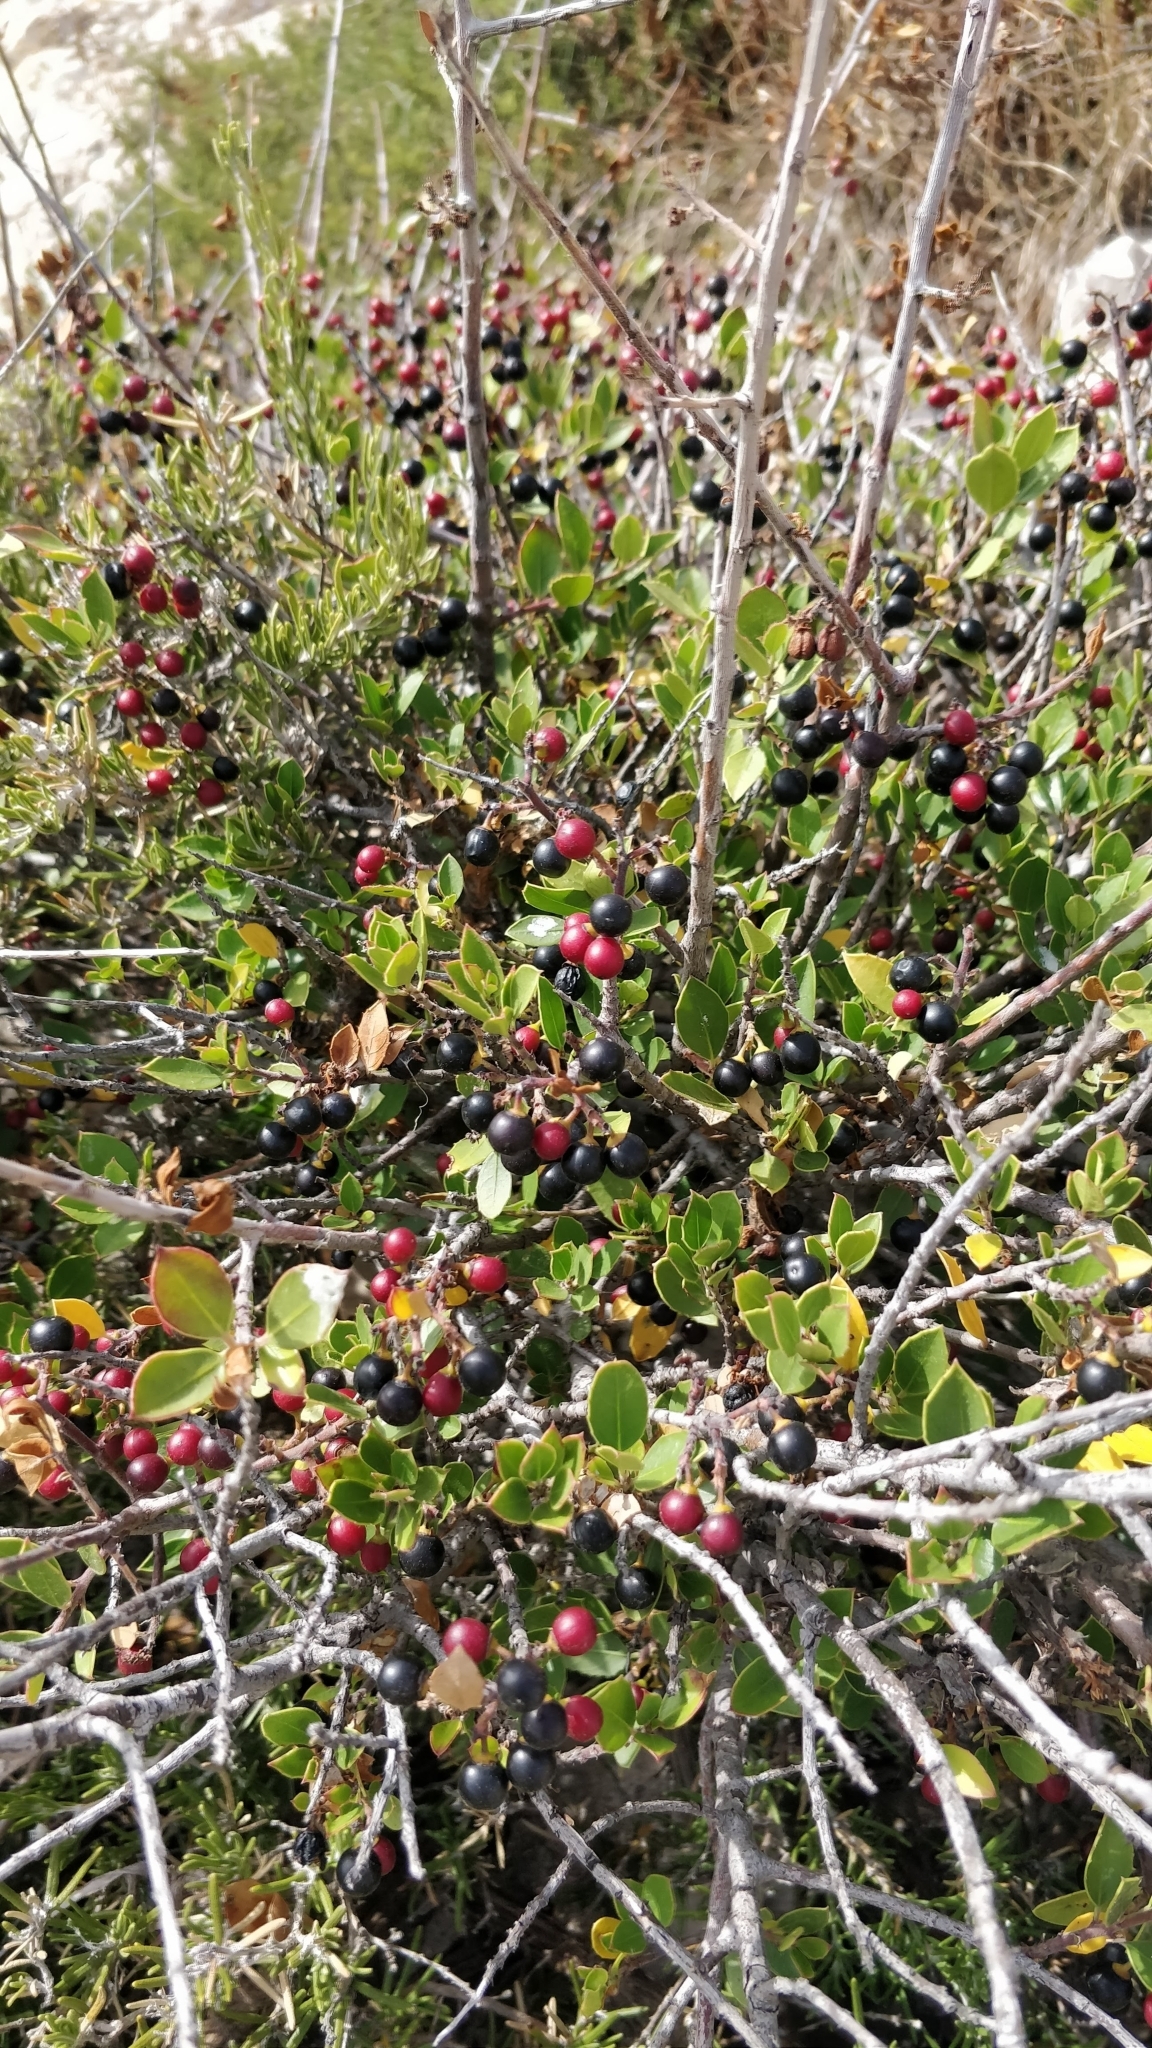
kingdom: Plantae
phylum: Tracheophyta
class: Magnoliopsida
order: Rosales
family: Rhamnaceae
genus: Rhamnus
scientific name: Rhamnus alaternus
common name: Mediterranean buckthorn
